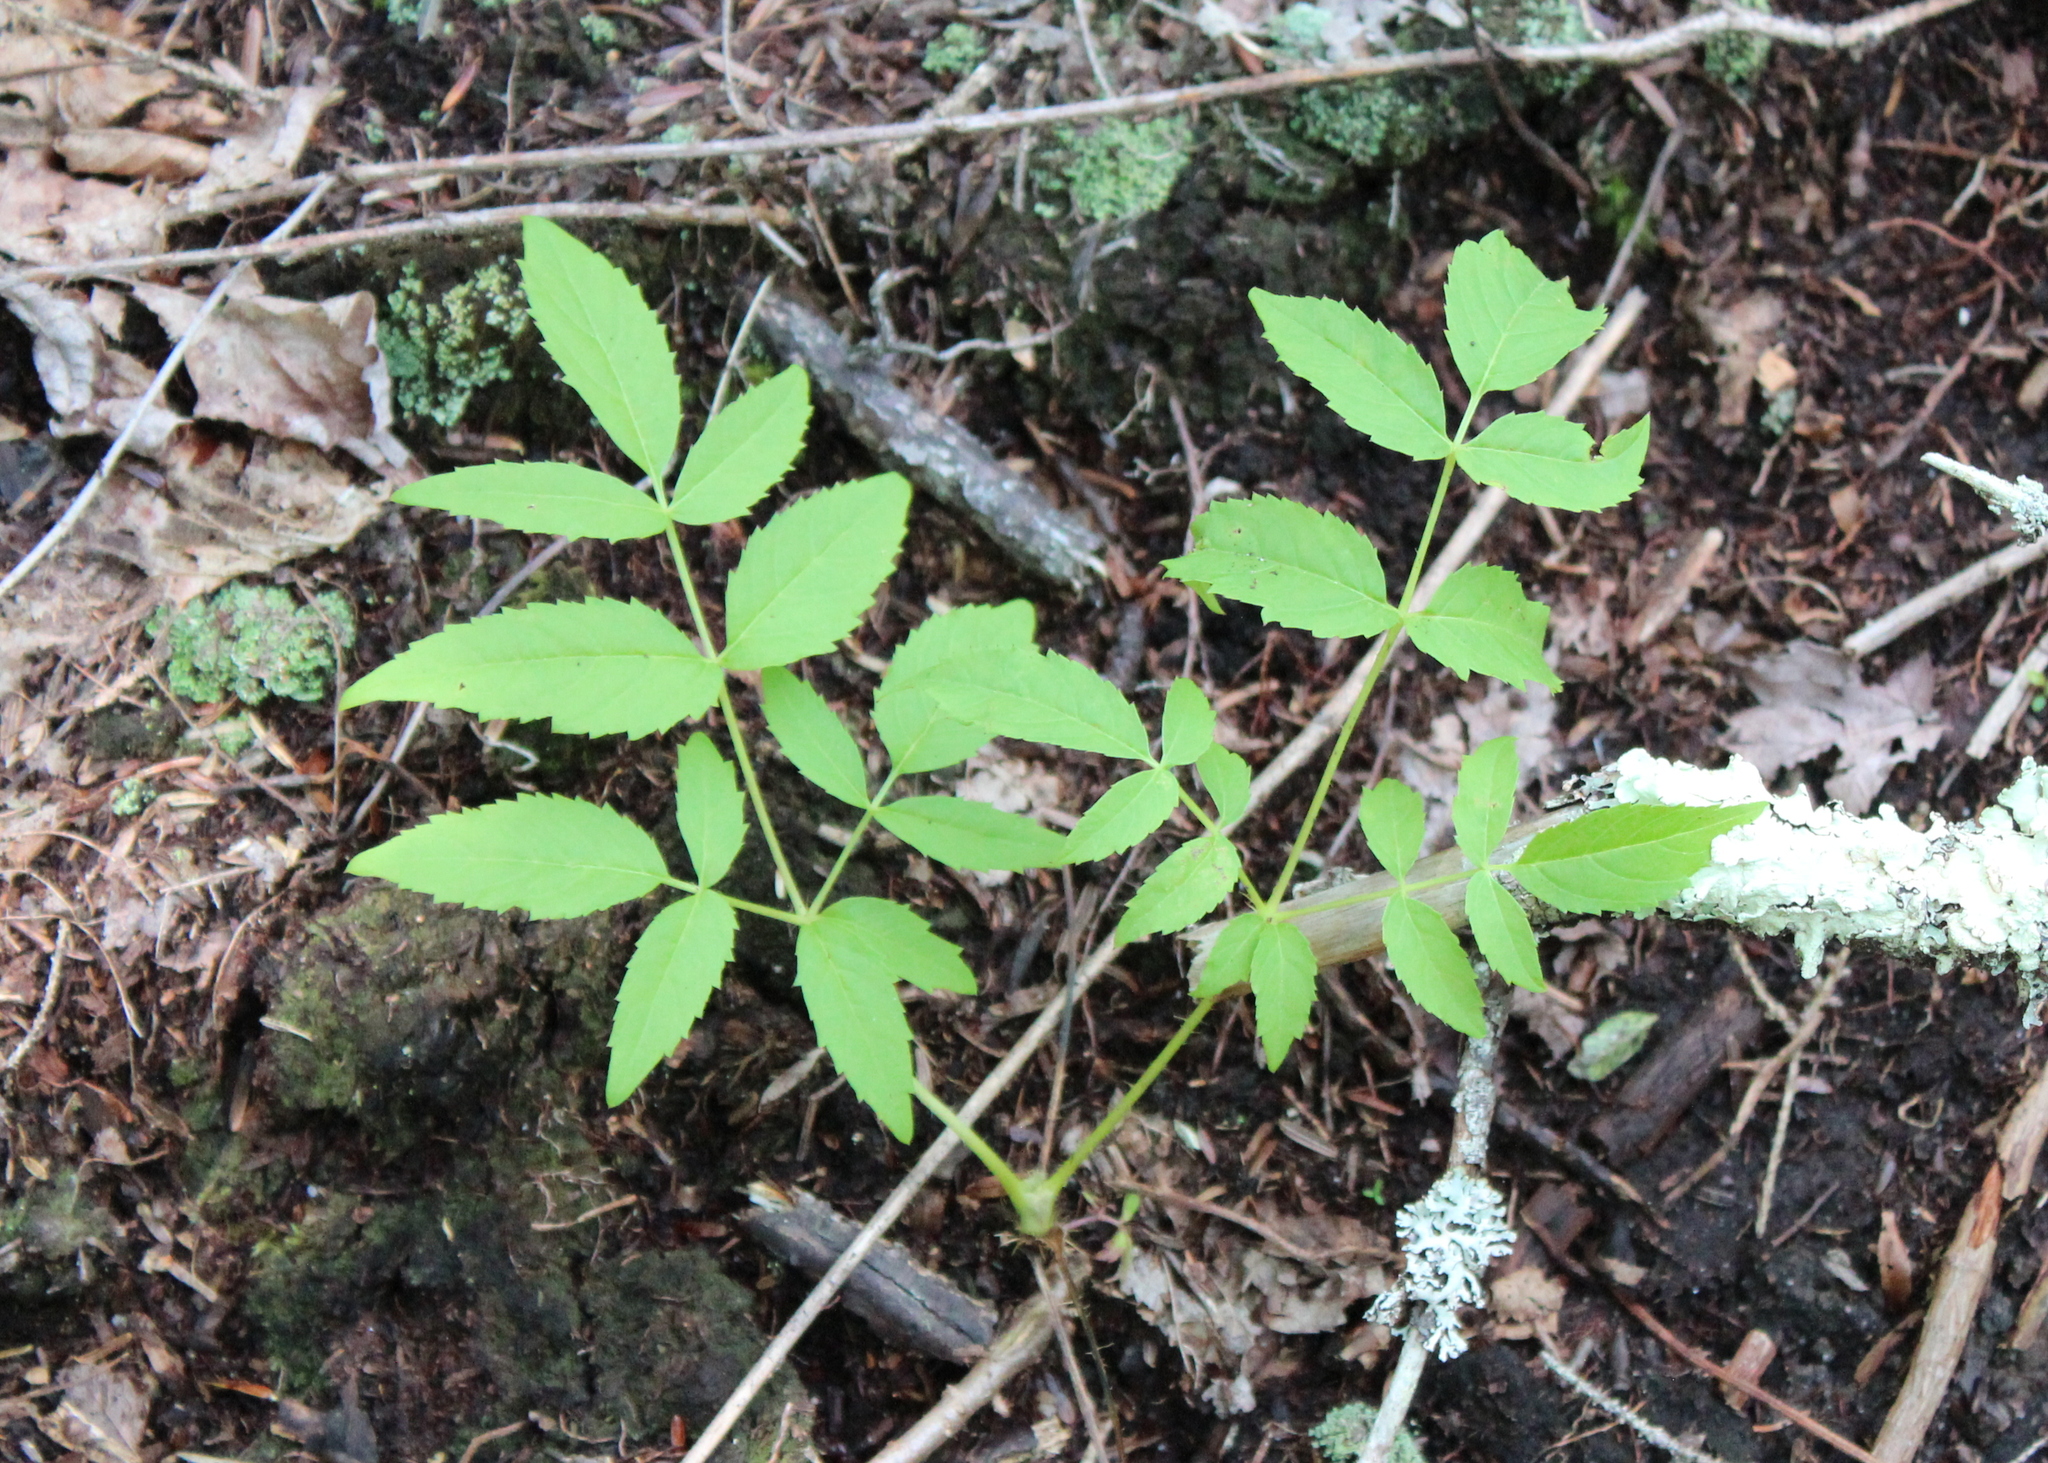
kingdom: Plantae
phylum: Tracheophyta
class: Magnoliopsida
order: Apiales
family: Araliaceae
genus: Aralia
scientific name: Aralia hispida
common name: Bristly sarsaparilla
